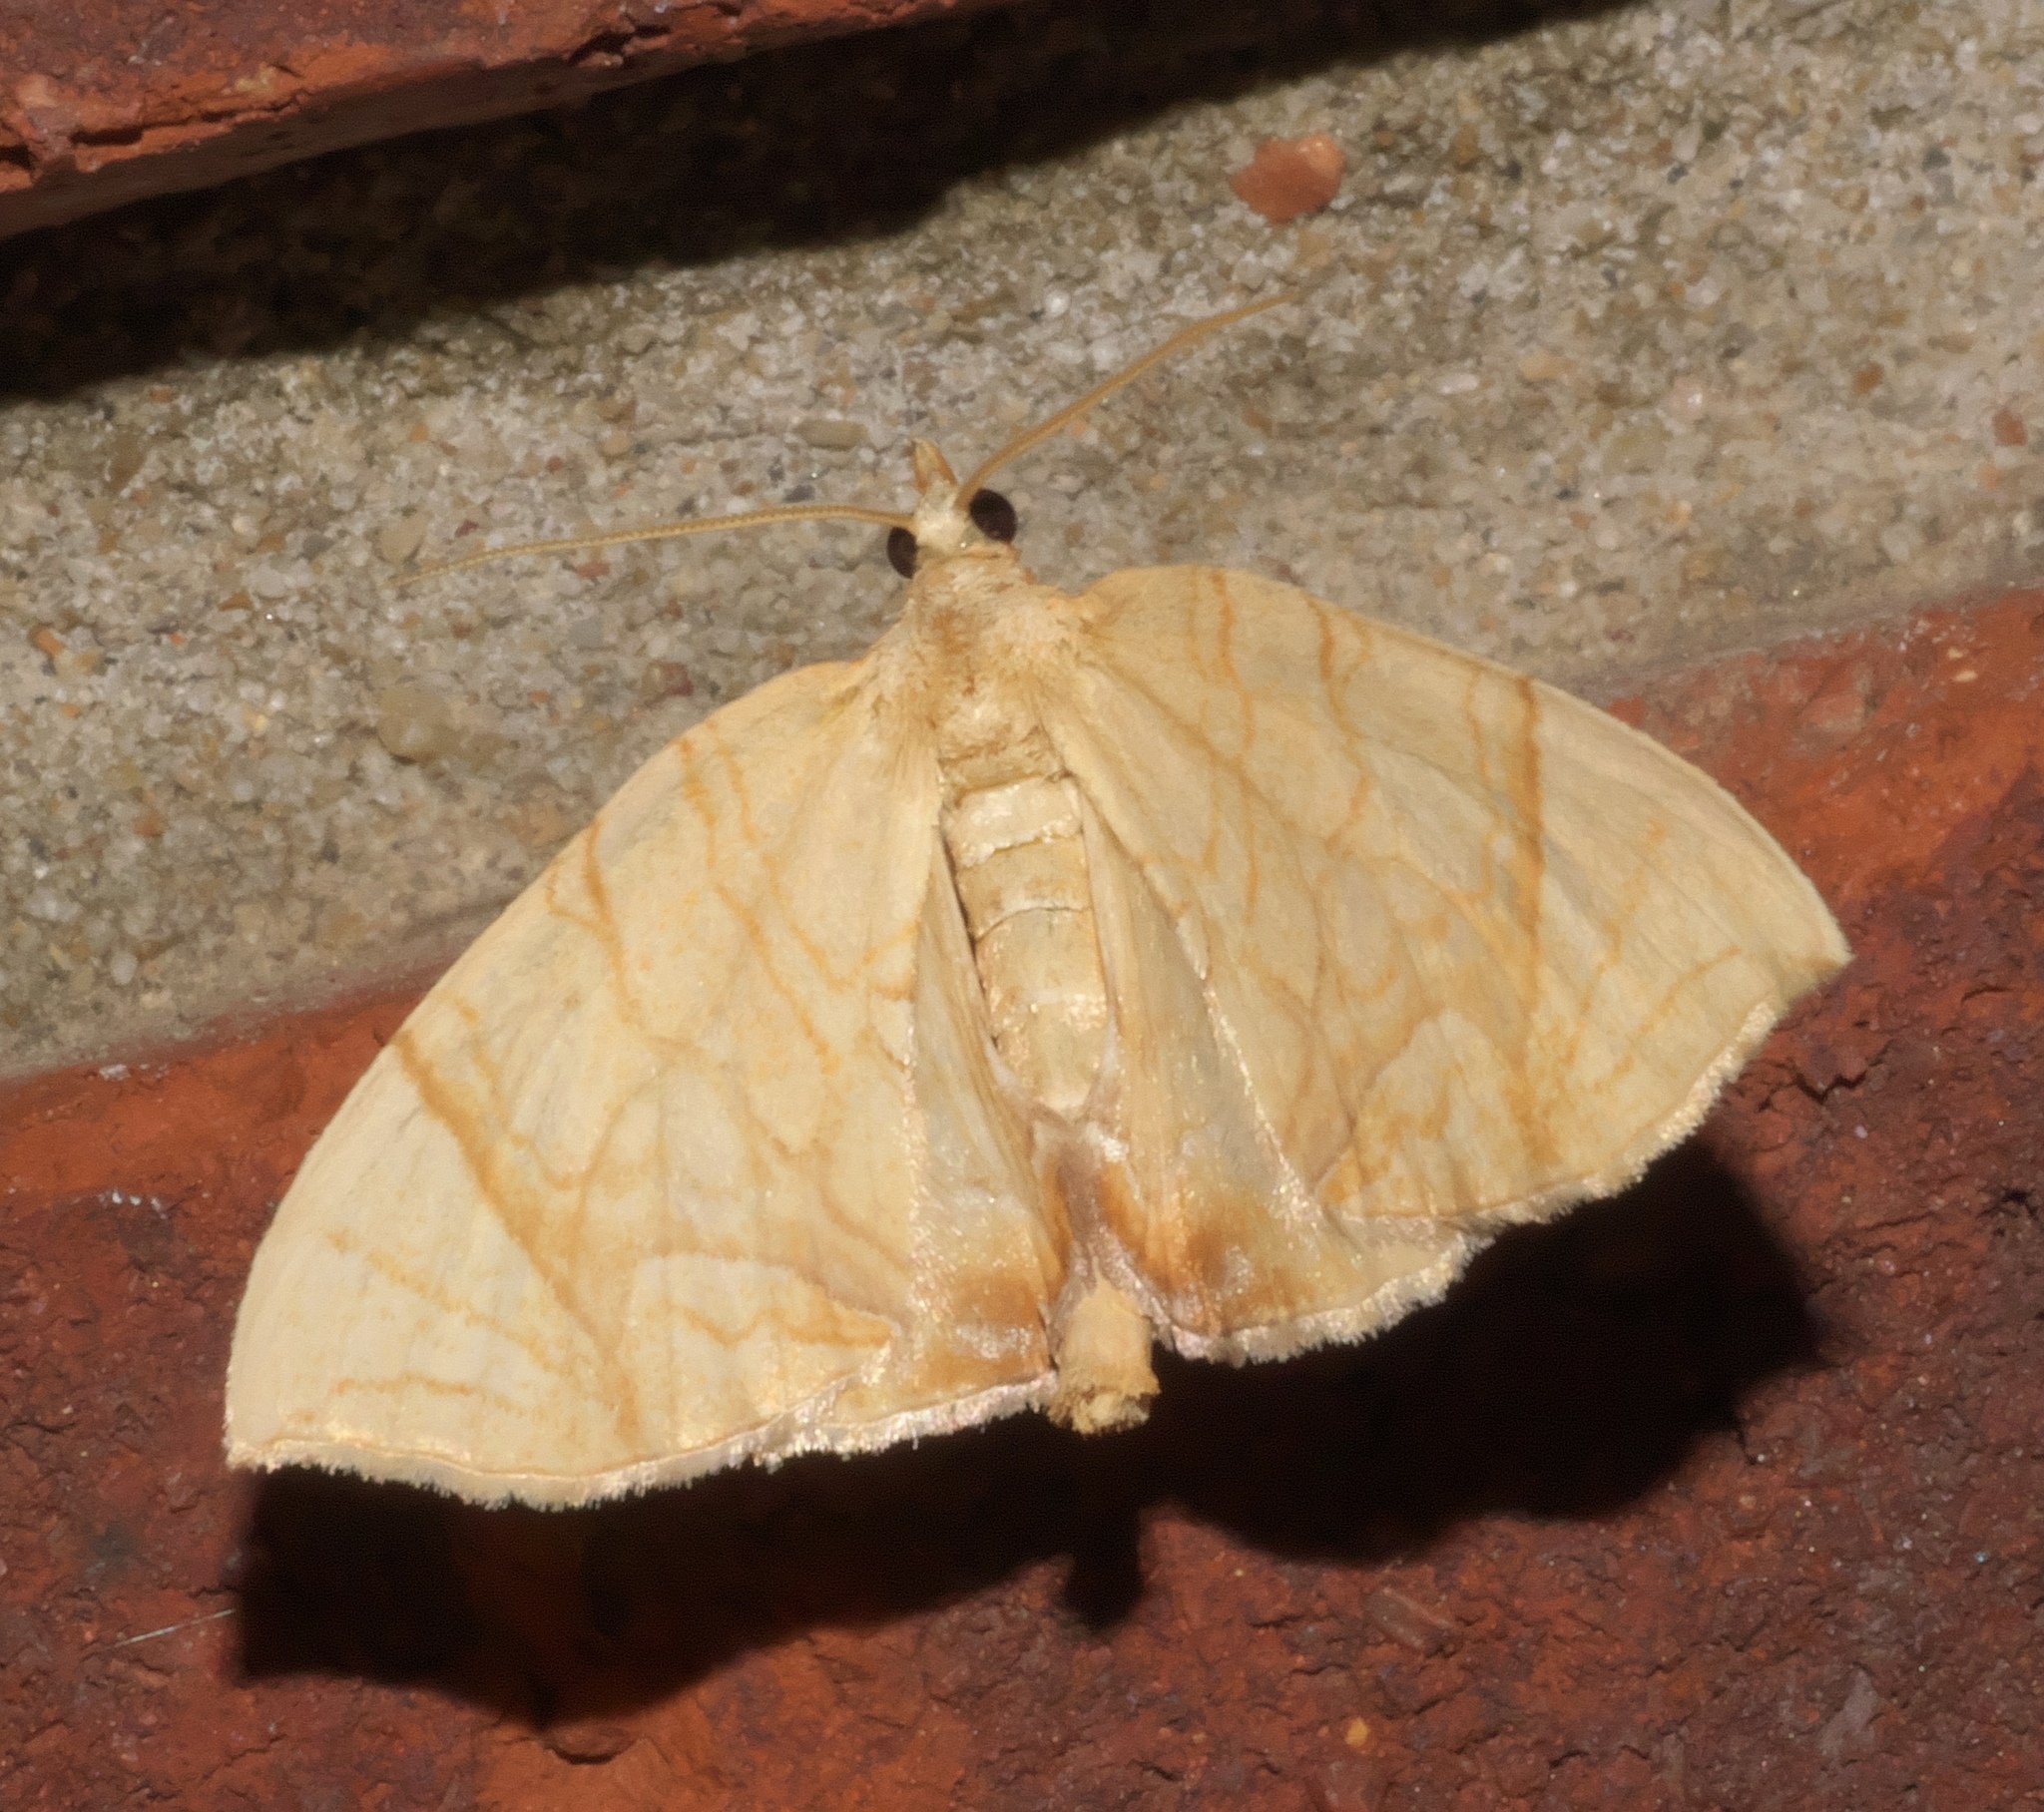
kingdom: Animalia
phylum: Arthropoda
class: Insecta
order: Lepidoptera
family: Geometridae
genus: Eulithis
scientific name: Eulithis
